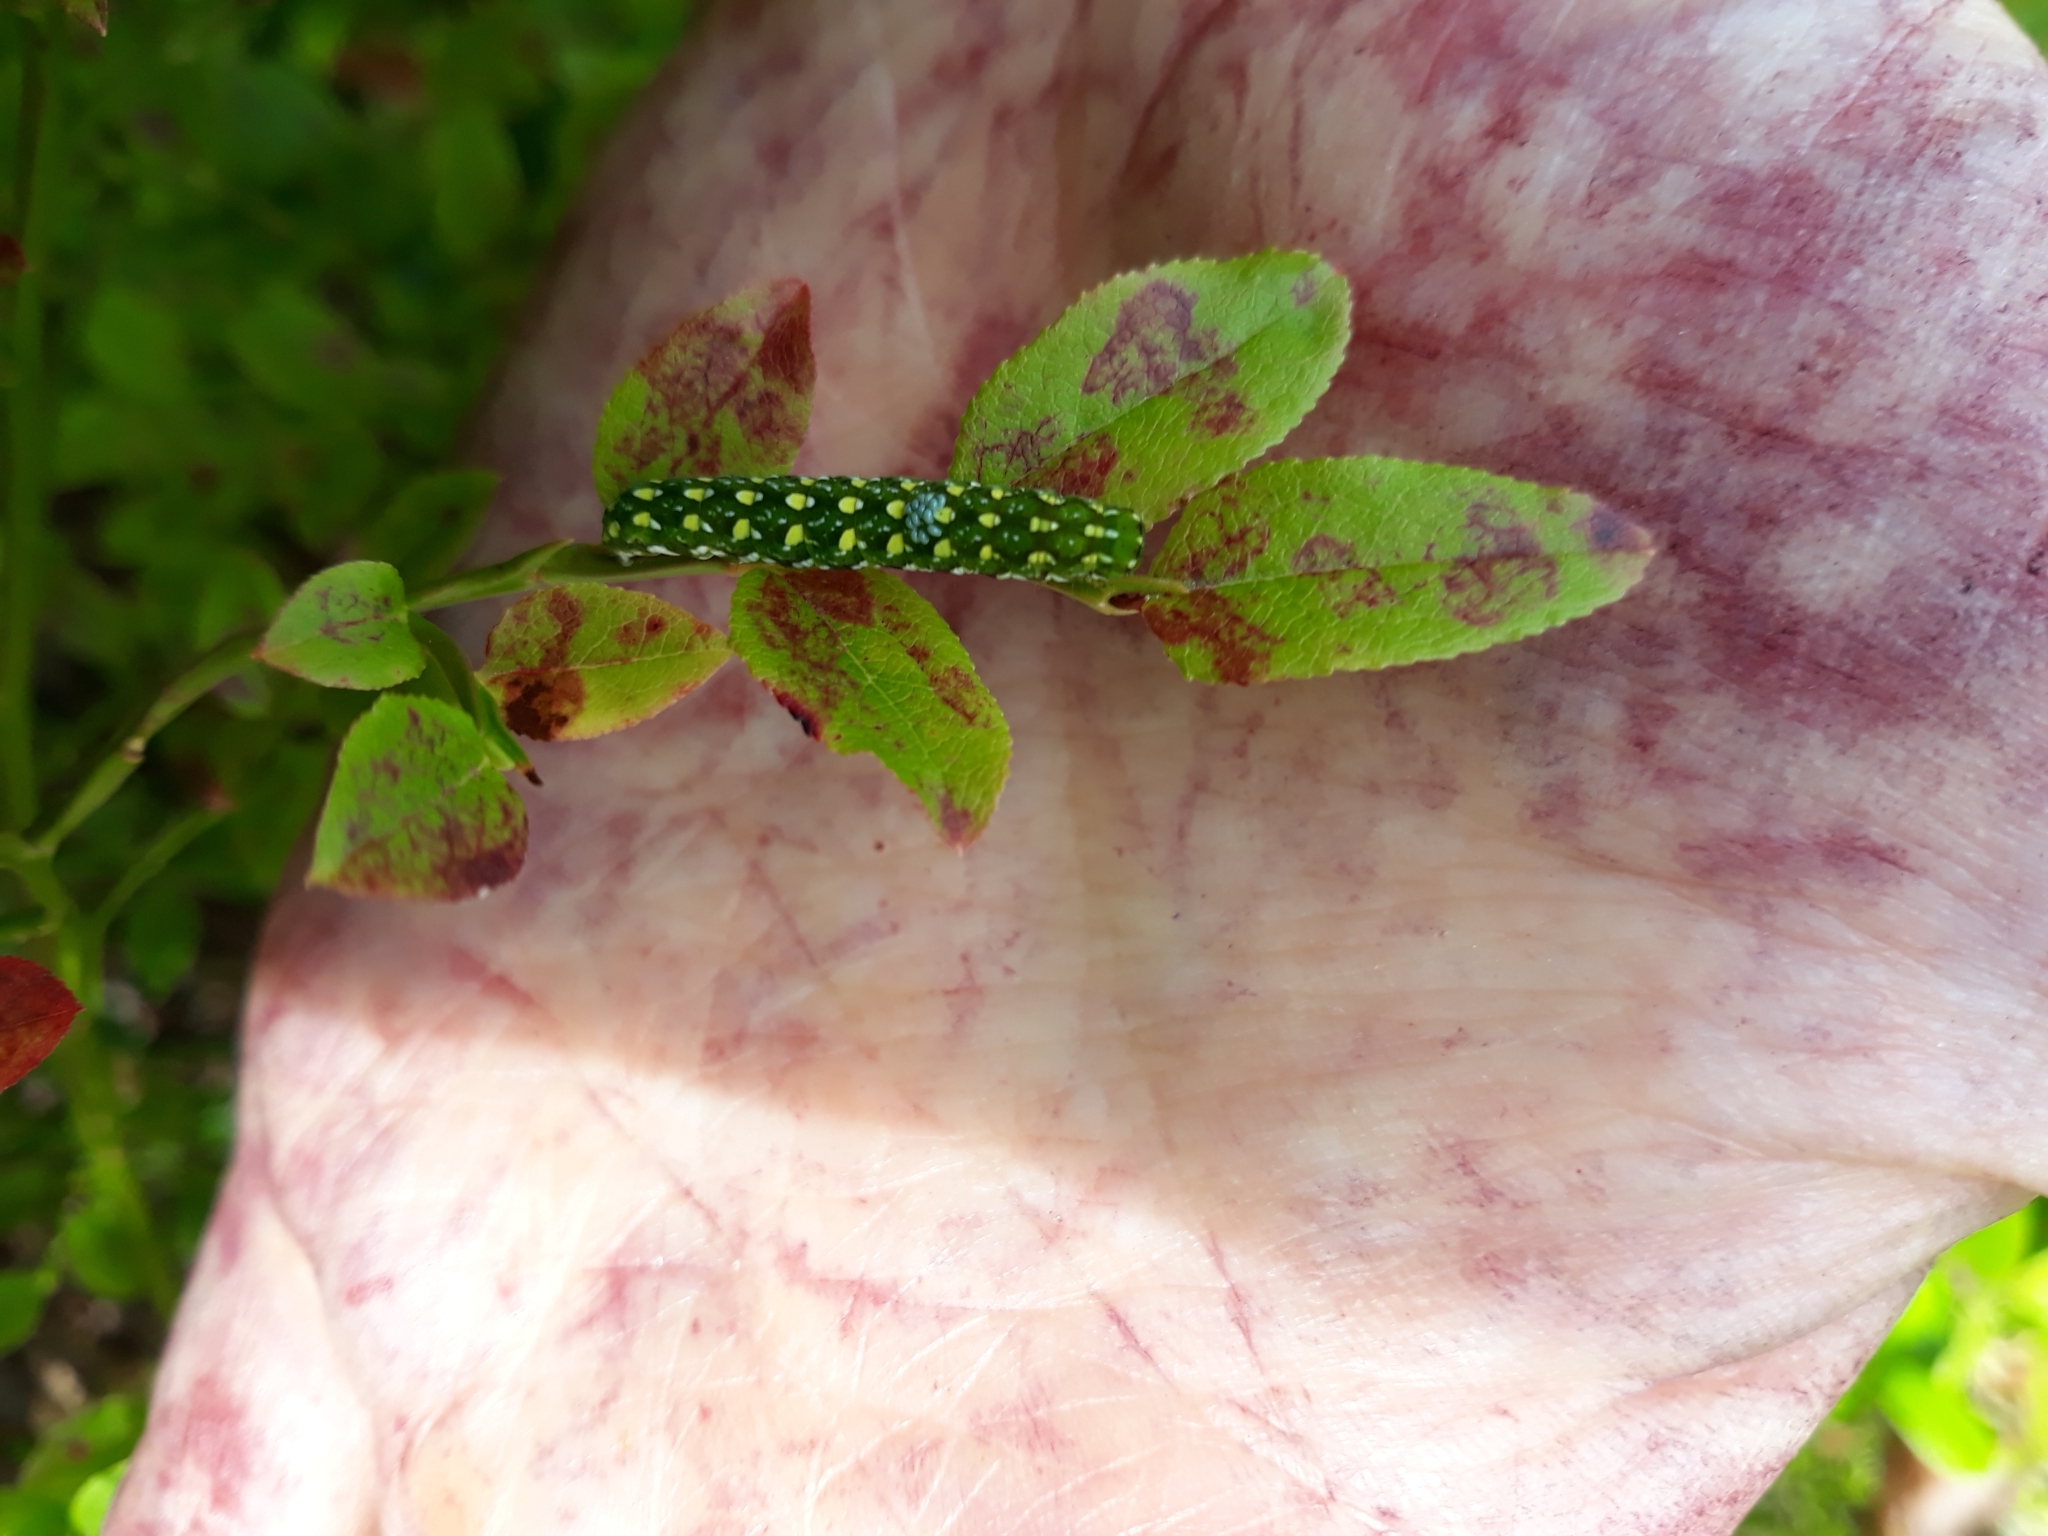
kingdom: Animalia
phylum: Arthropoda
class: Insecta
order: Lepidoptera
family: Noctuidae
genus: Anarta
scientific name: Anarta myrtilli
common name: Beautiful yellow underwing
